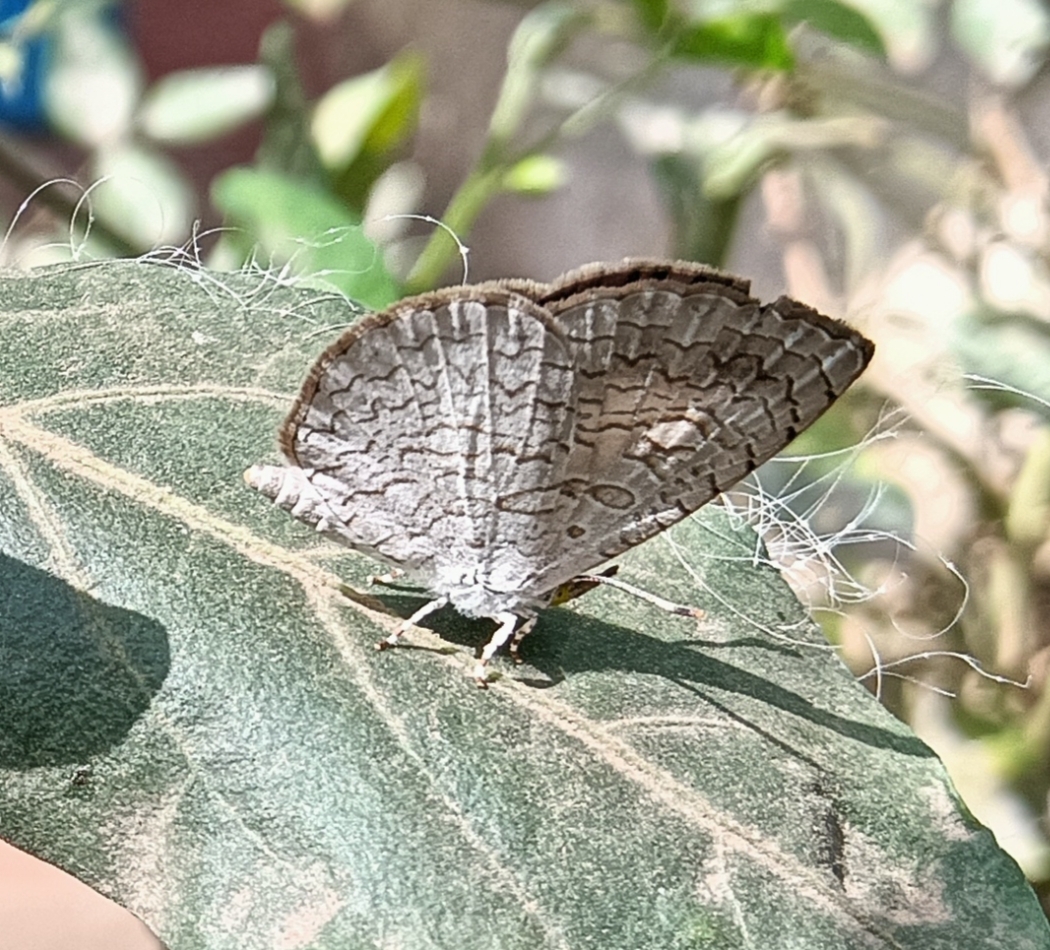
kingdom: Animalia
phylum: Arthropoda
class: Insecta
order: Lepidoptera
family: Lycaenidae
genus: Spalgis
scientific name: Spalgis epius
